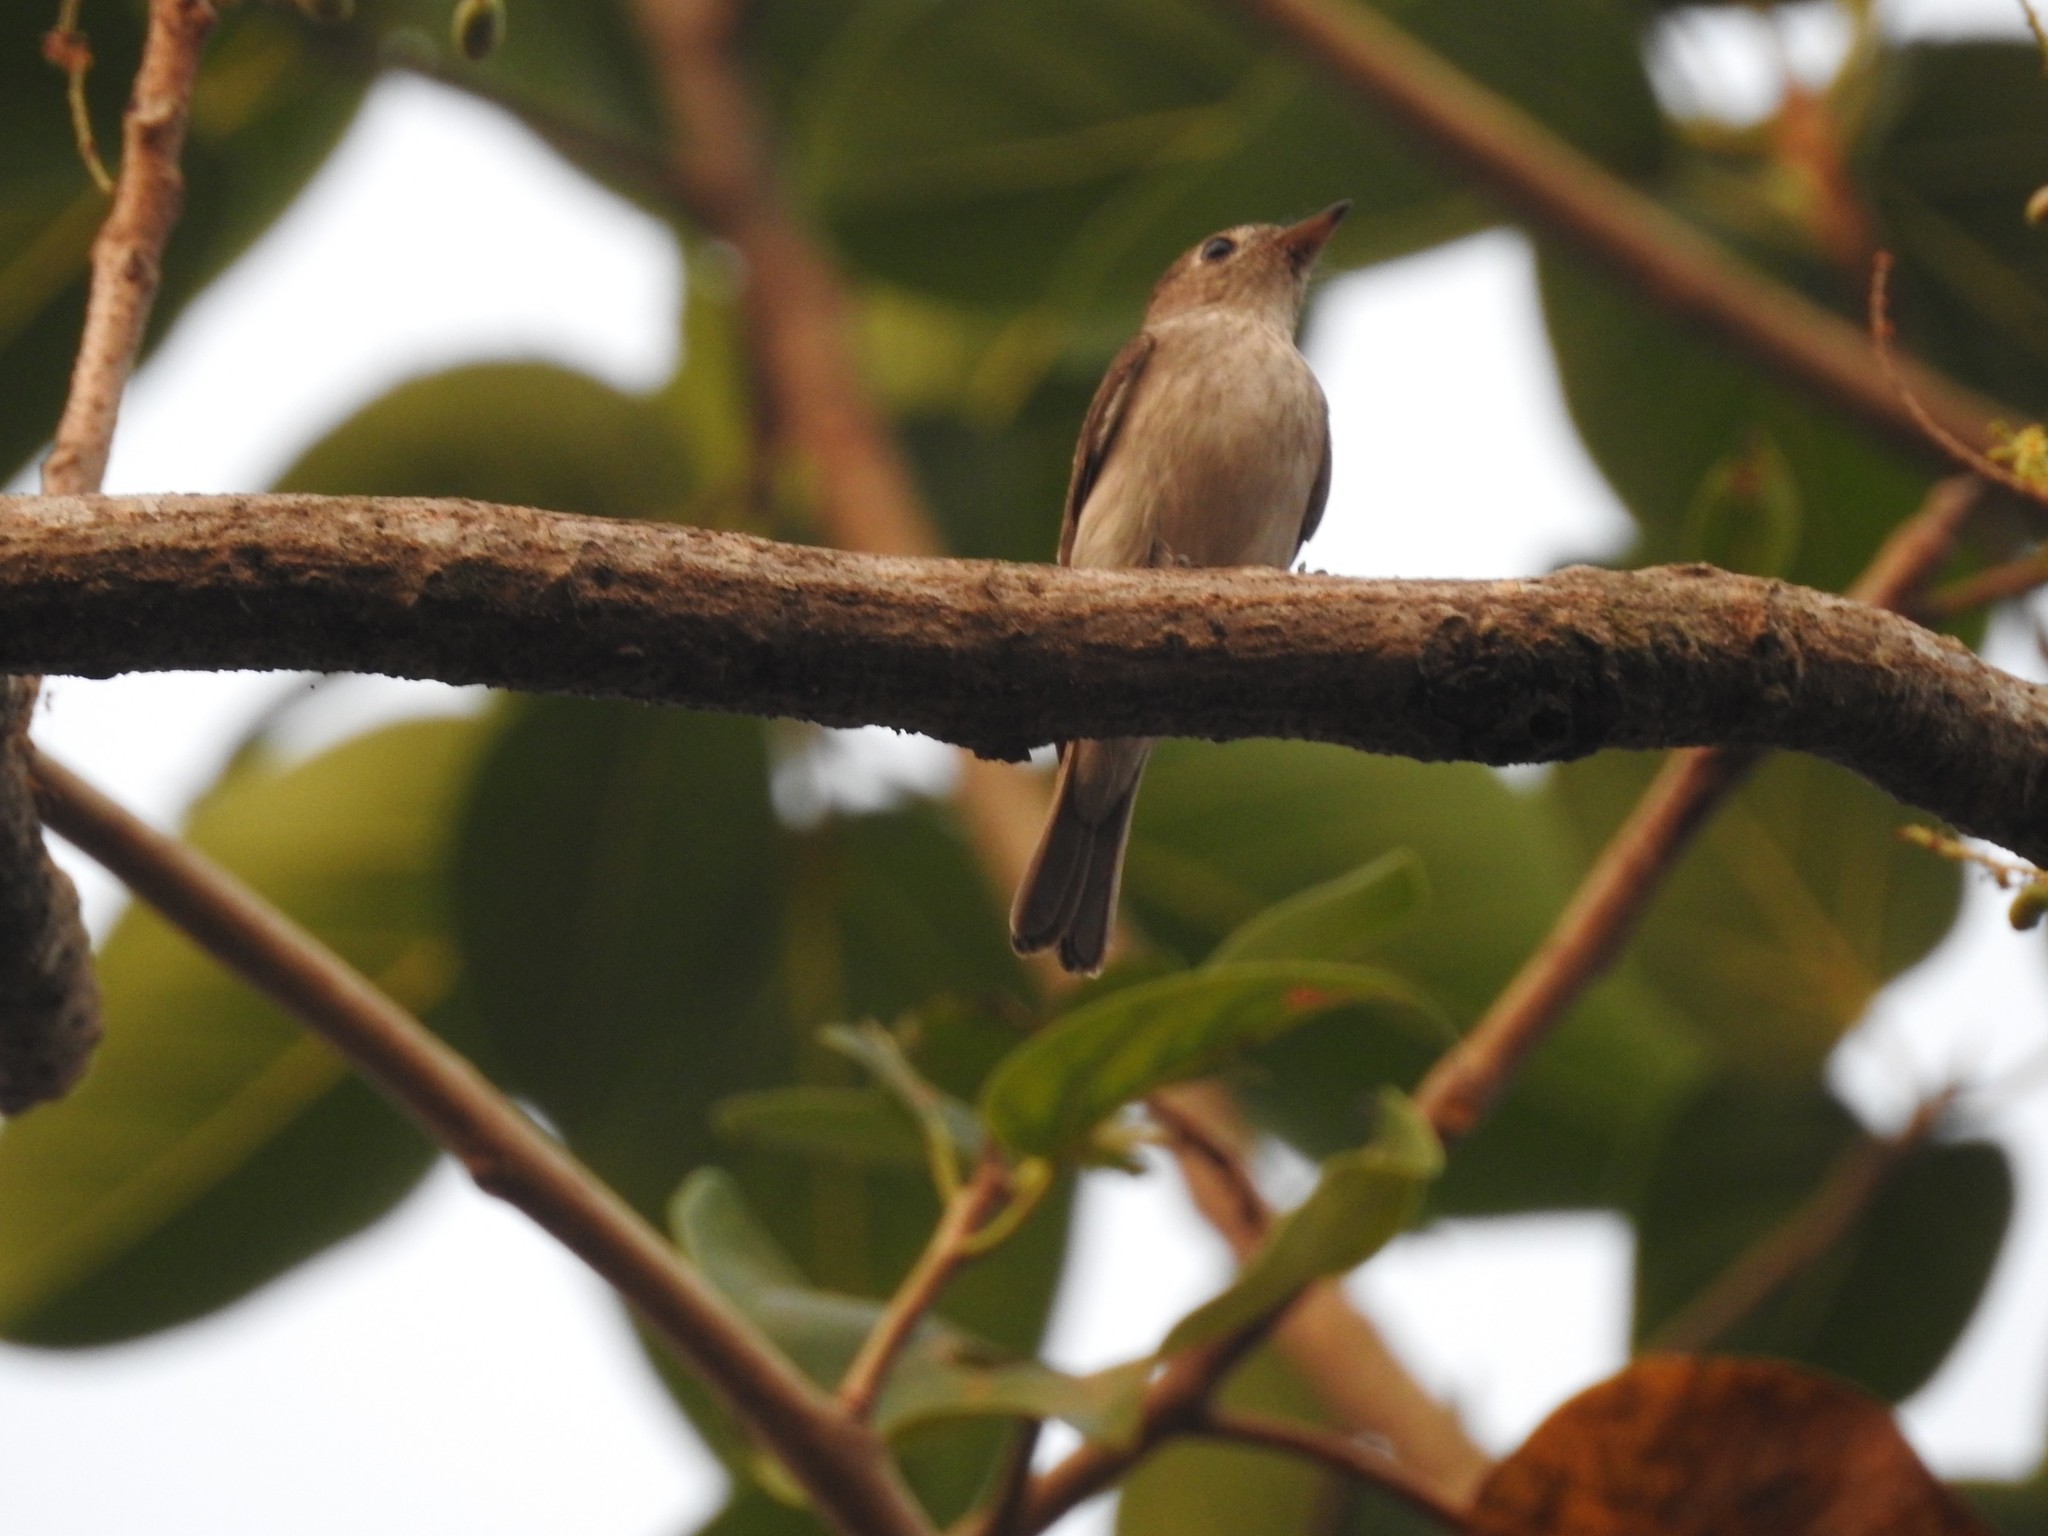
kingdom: Animalia
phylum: Chordata
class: Aves
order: Passeriformes
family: Muscicapidae
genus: Muscicapa
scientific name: Muscicapa latirostris
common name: Asian brown flycatcher
